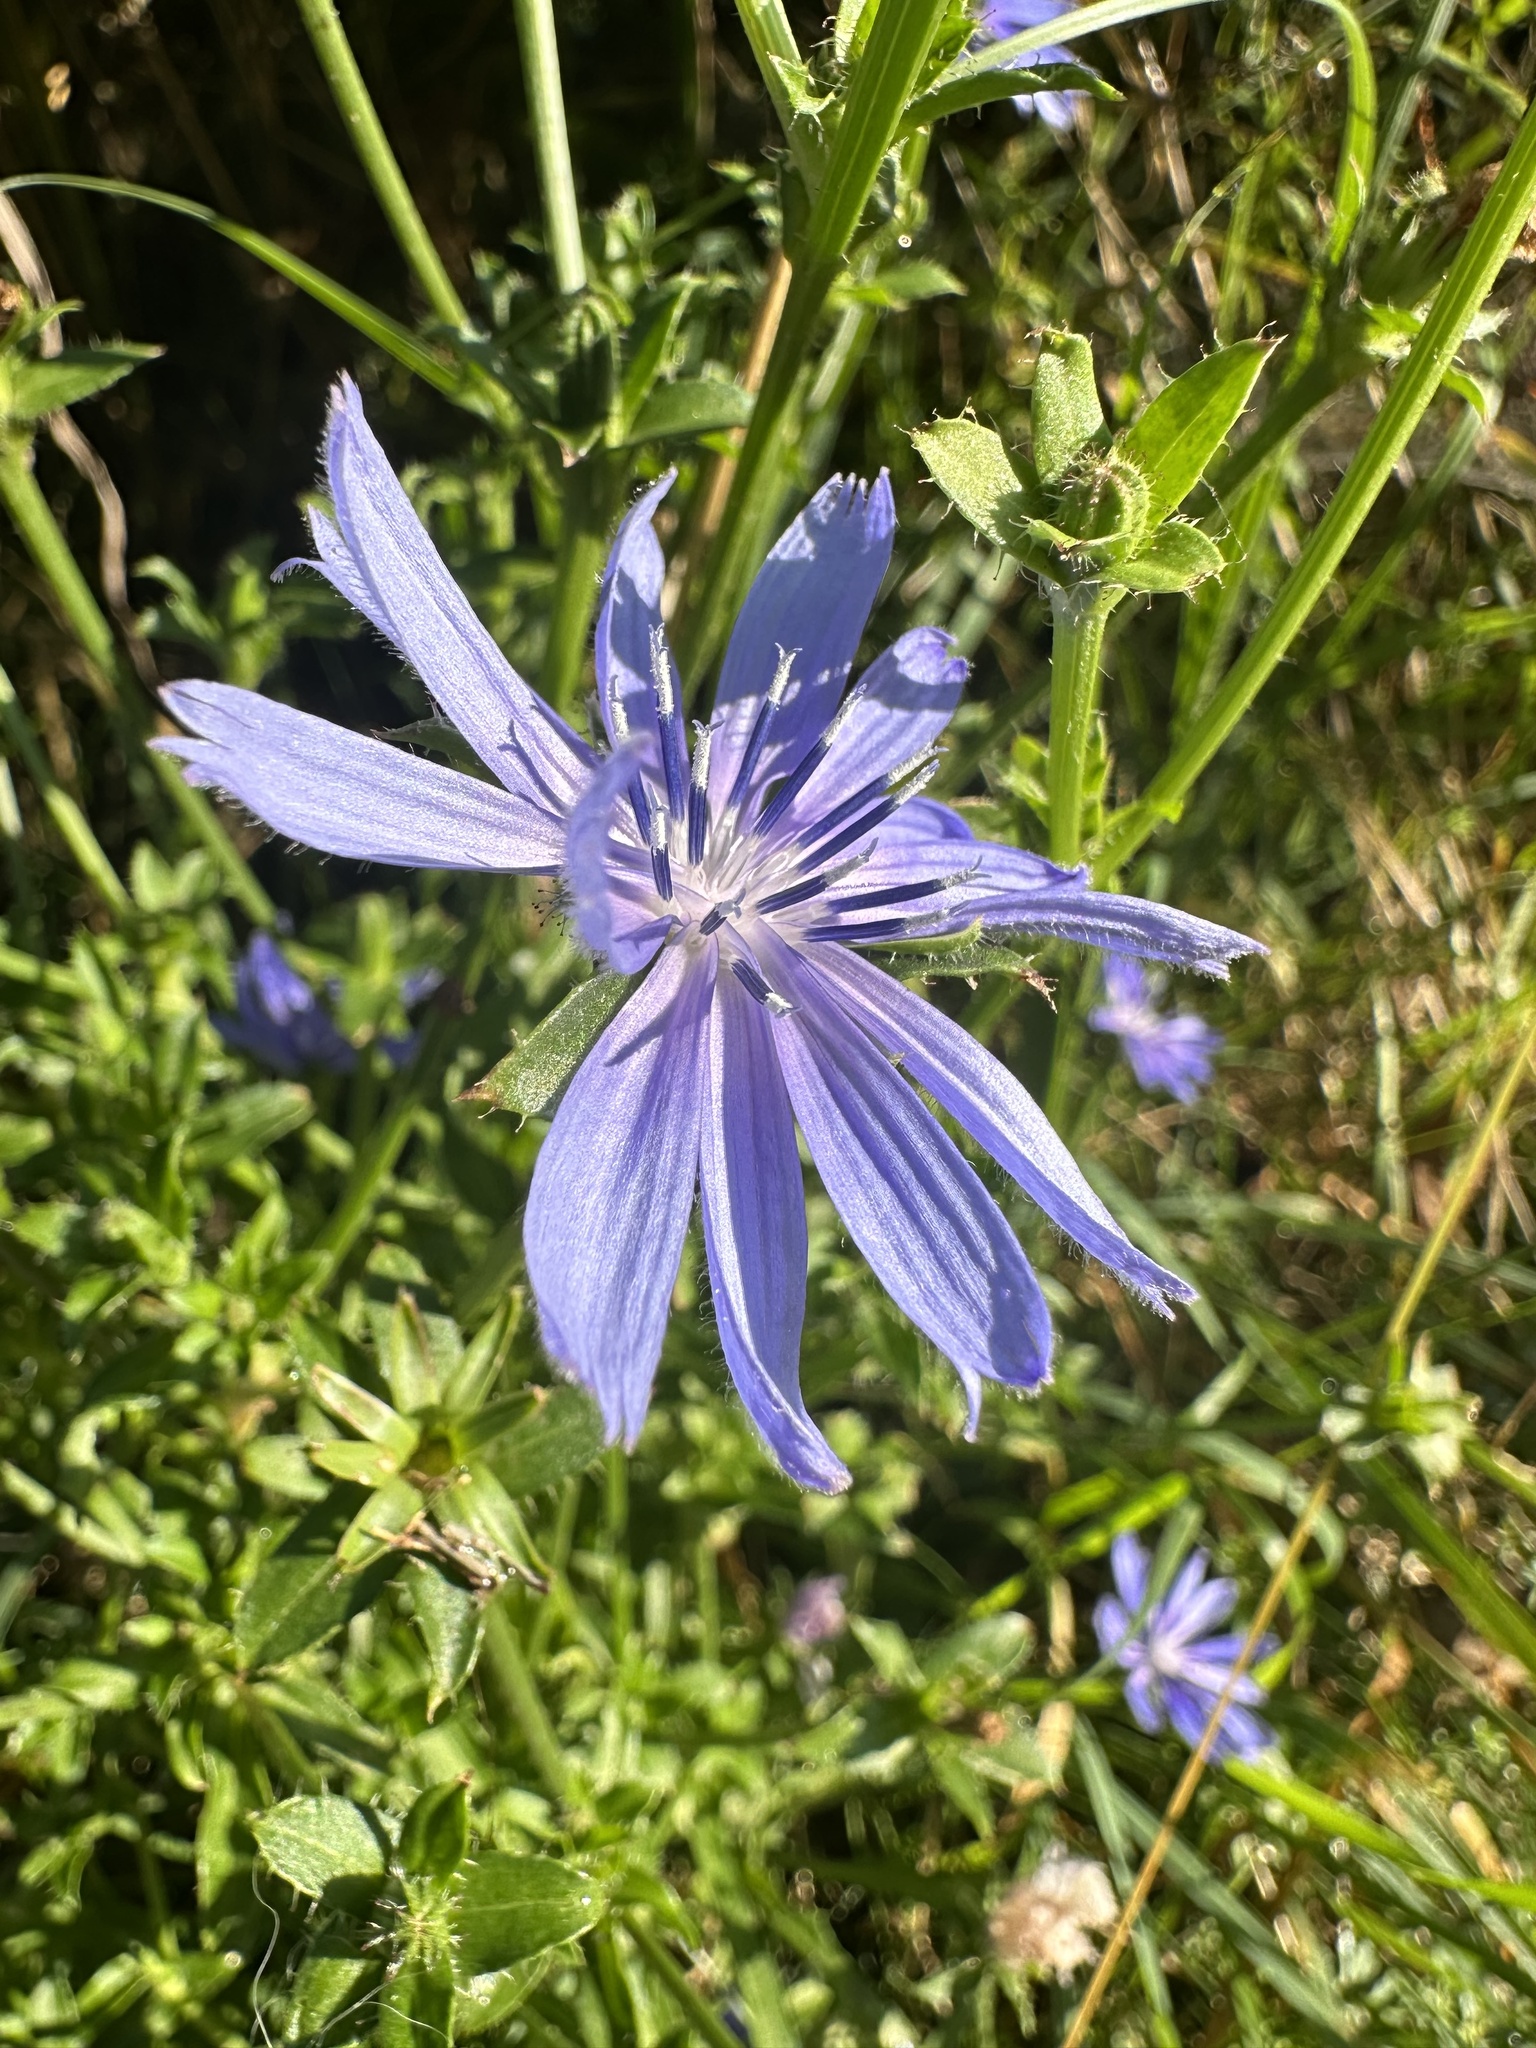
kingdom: Plantae
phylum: Tracheophyta
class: Magnoliopsida
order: Asterales
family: Asteraceae
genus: Cichorium
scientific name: Cichorium intybus
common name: Chicory
